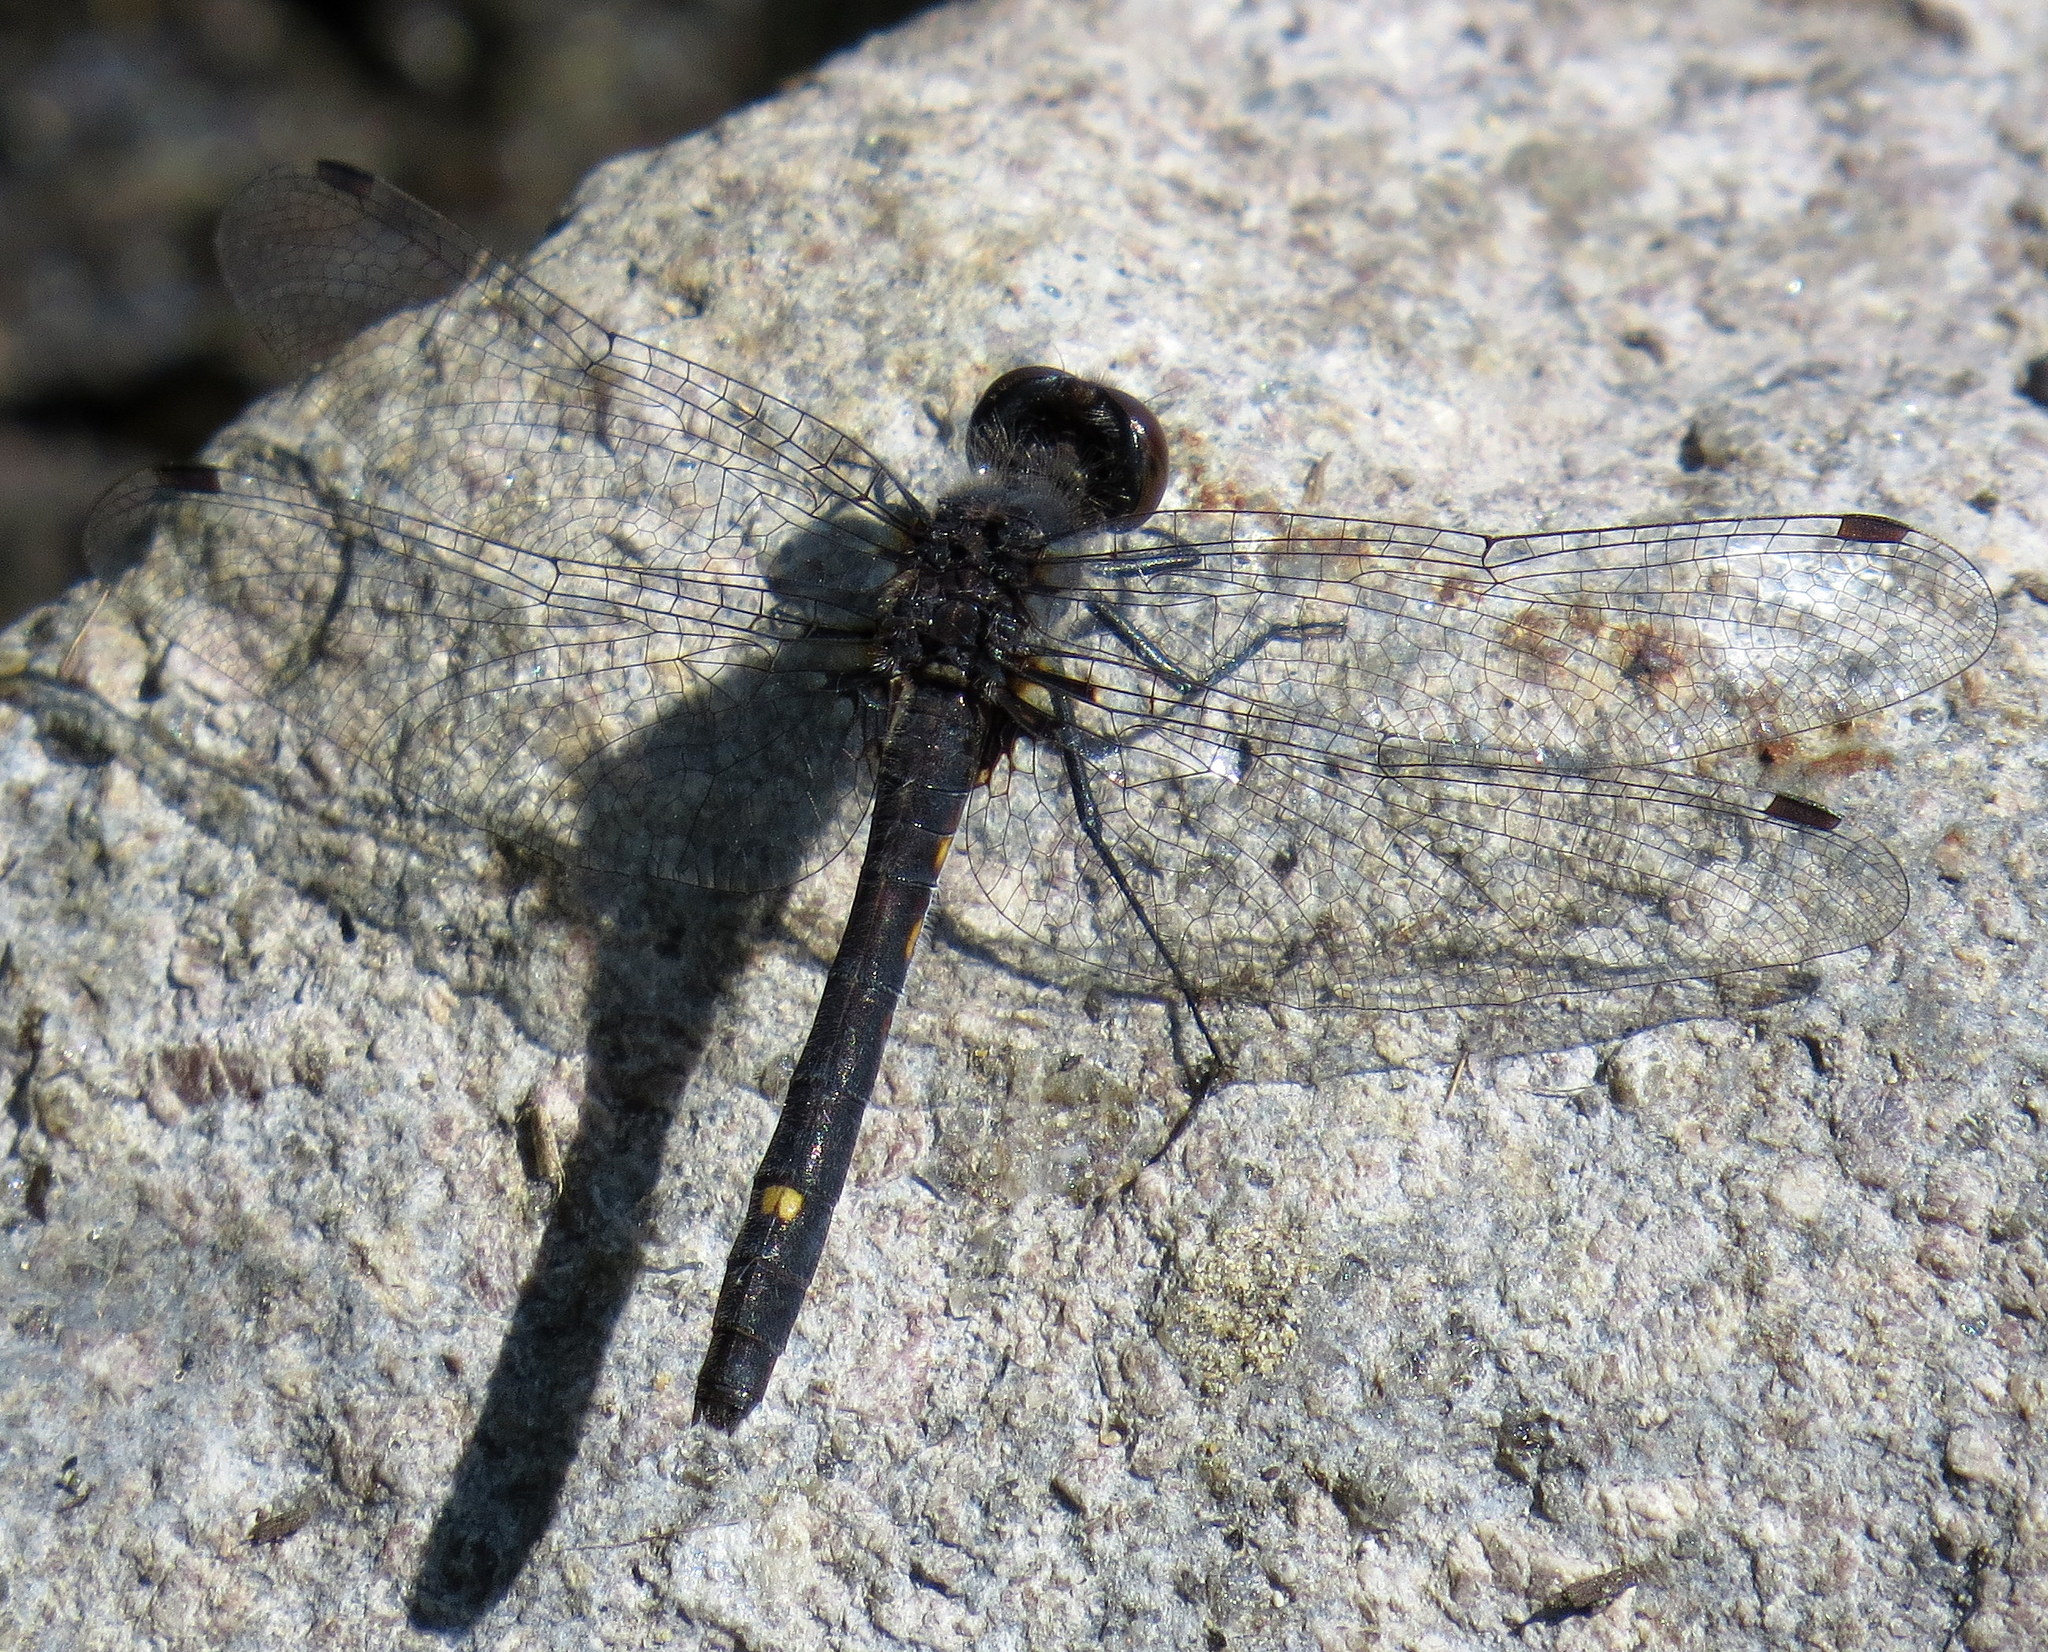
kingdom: Animalia
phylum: Arthropoda
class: Insecta
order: Odonata
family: Libellulidae
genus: Leucorrhinia
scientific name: Leucorrhinia intacta
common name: Dot-tailed whiteface
